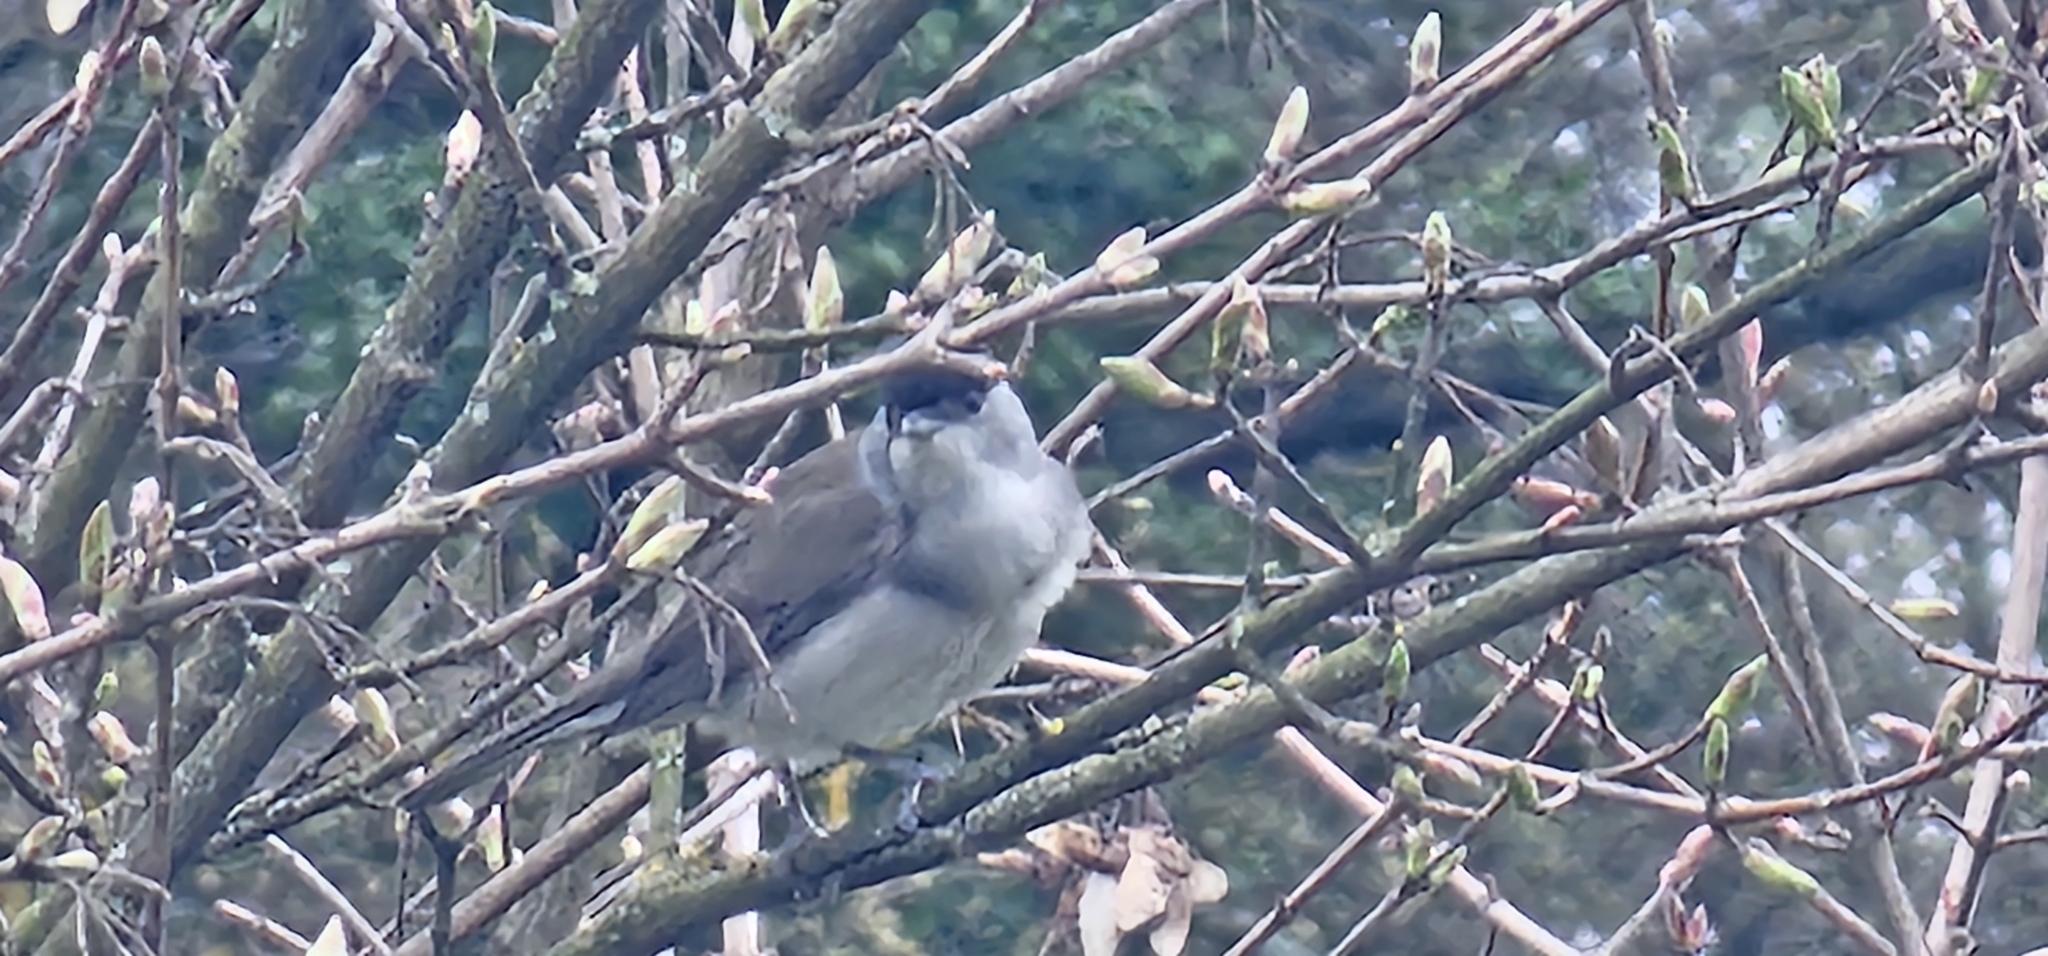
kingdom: Animalia
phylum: Chordata
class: Aves
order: Passeriformes
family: Sylviidae
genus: Sylvia
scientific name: Sylvia atricapilla
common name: Eurasian blackcap
